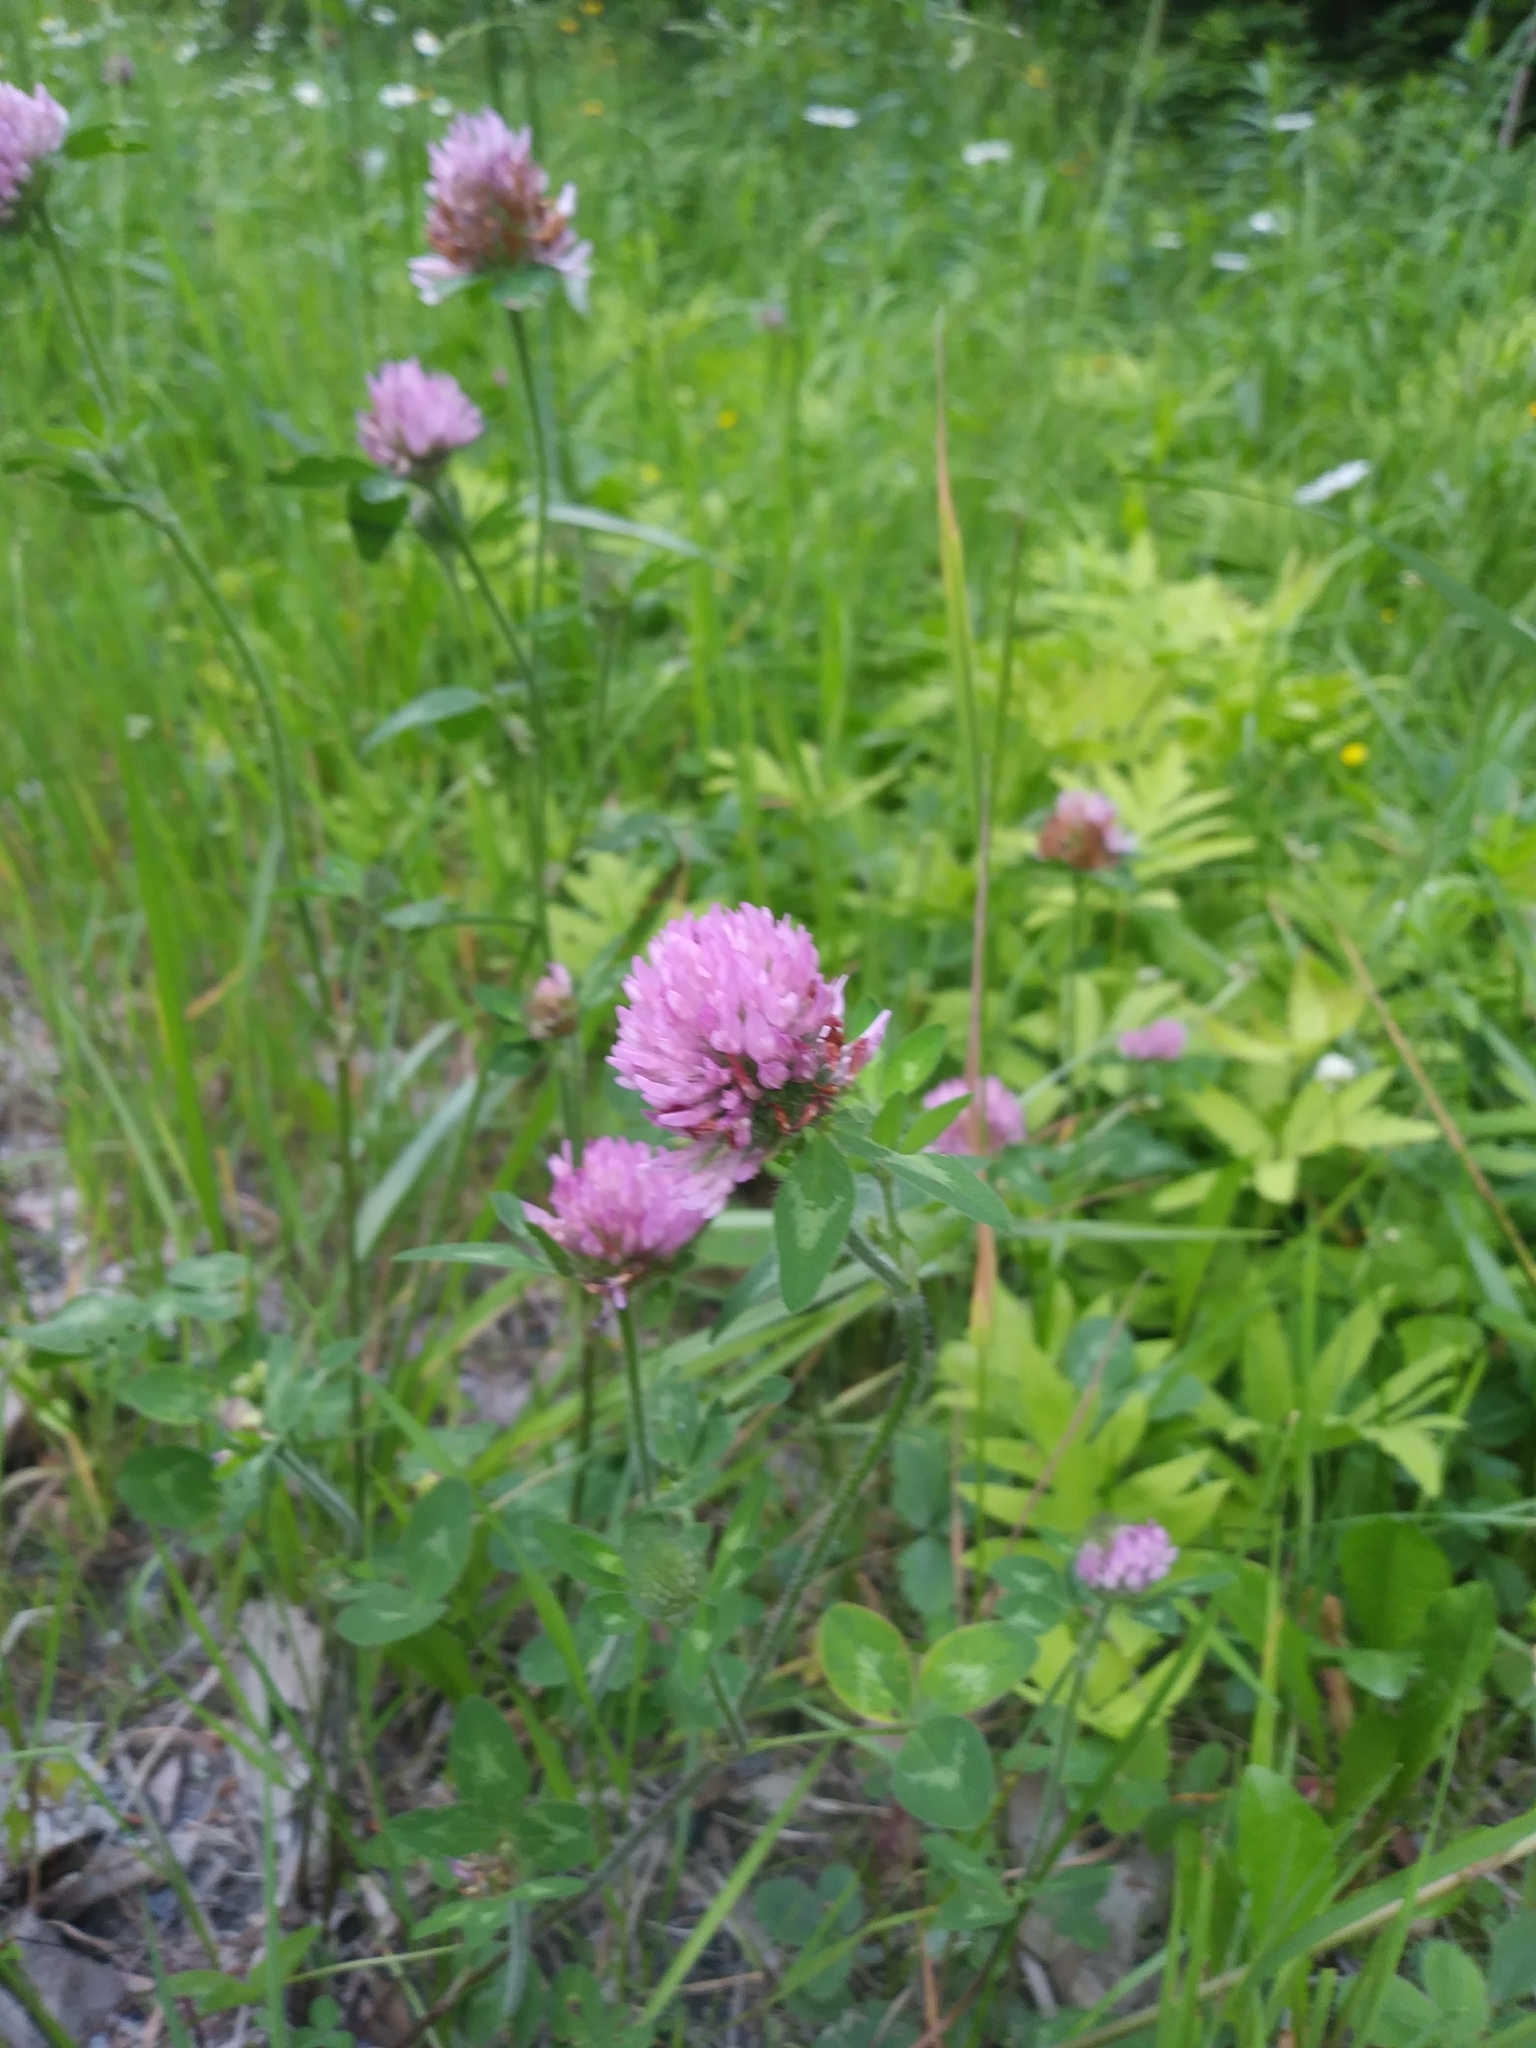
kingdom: Plantae
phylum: Tracheophyta
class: Magnoliopsida
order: Fabales
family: Fabaceae
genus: Trifolium
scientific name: Trifolium pratense
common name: Red clover
